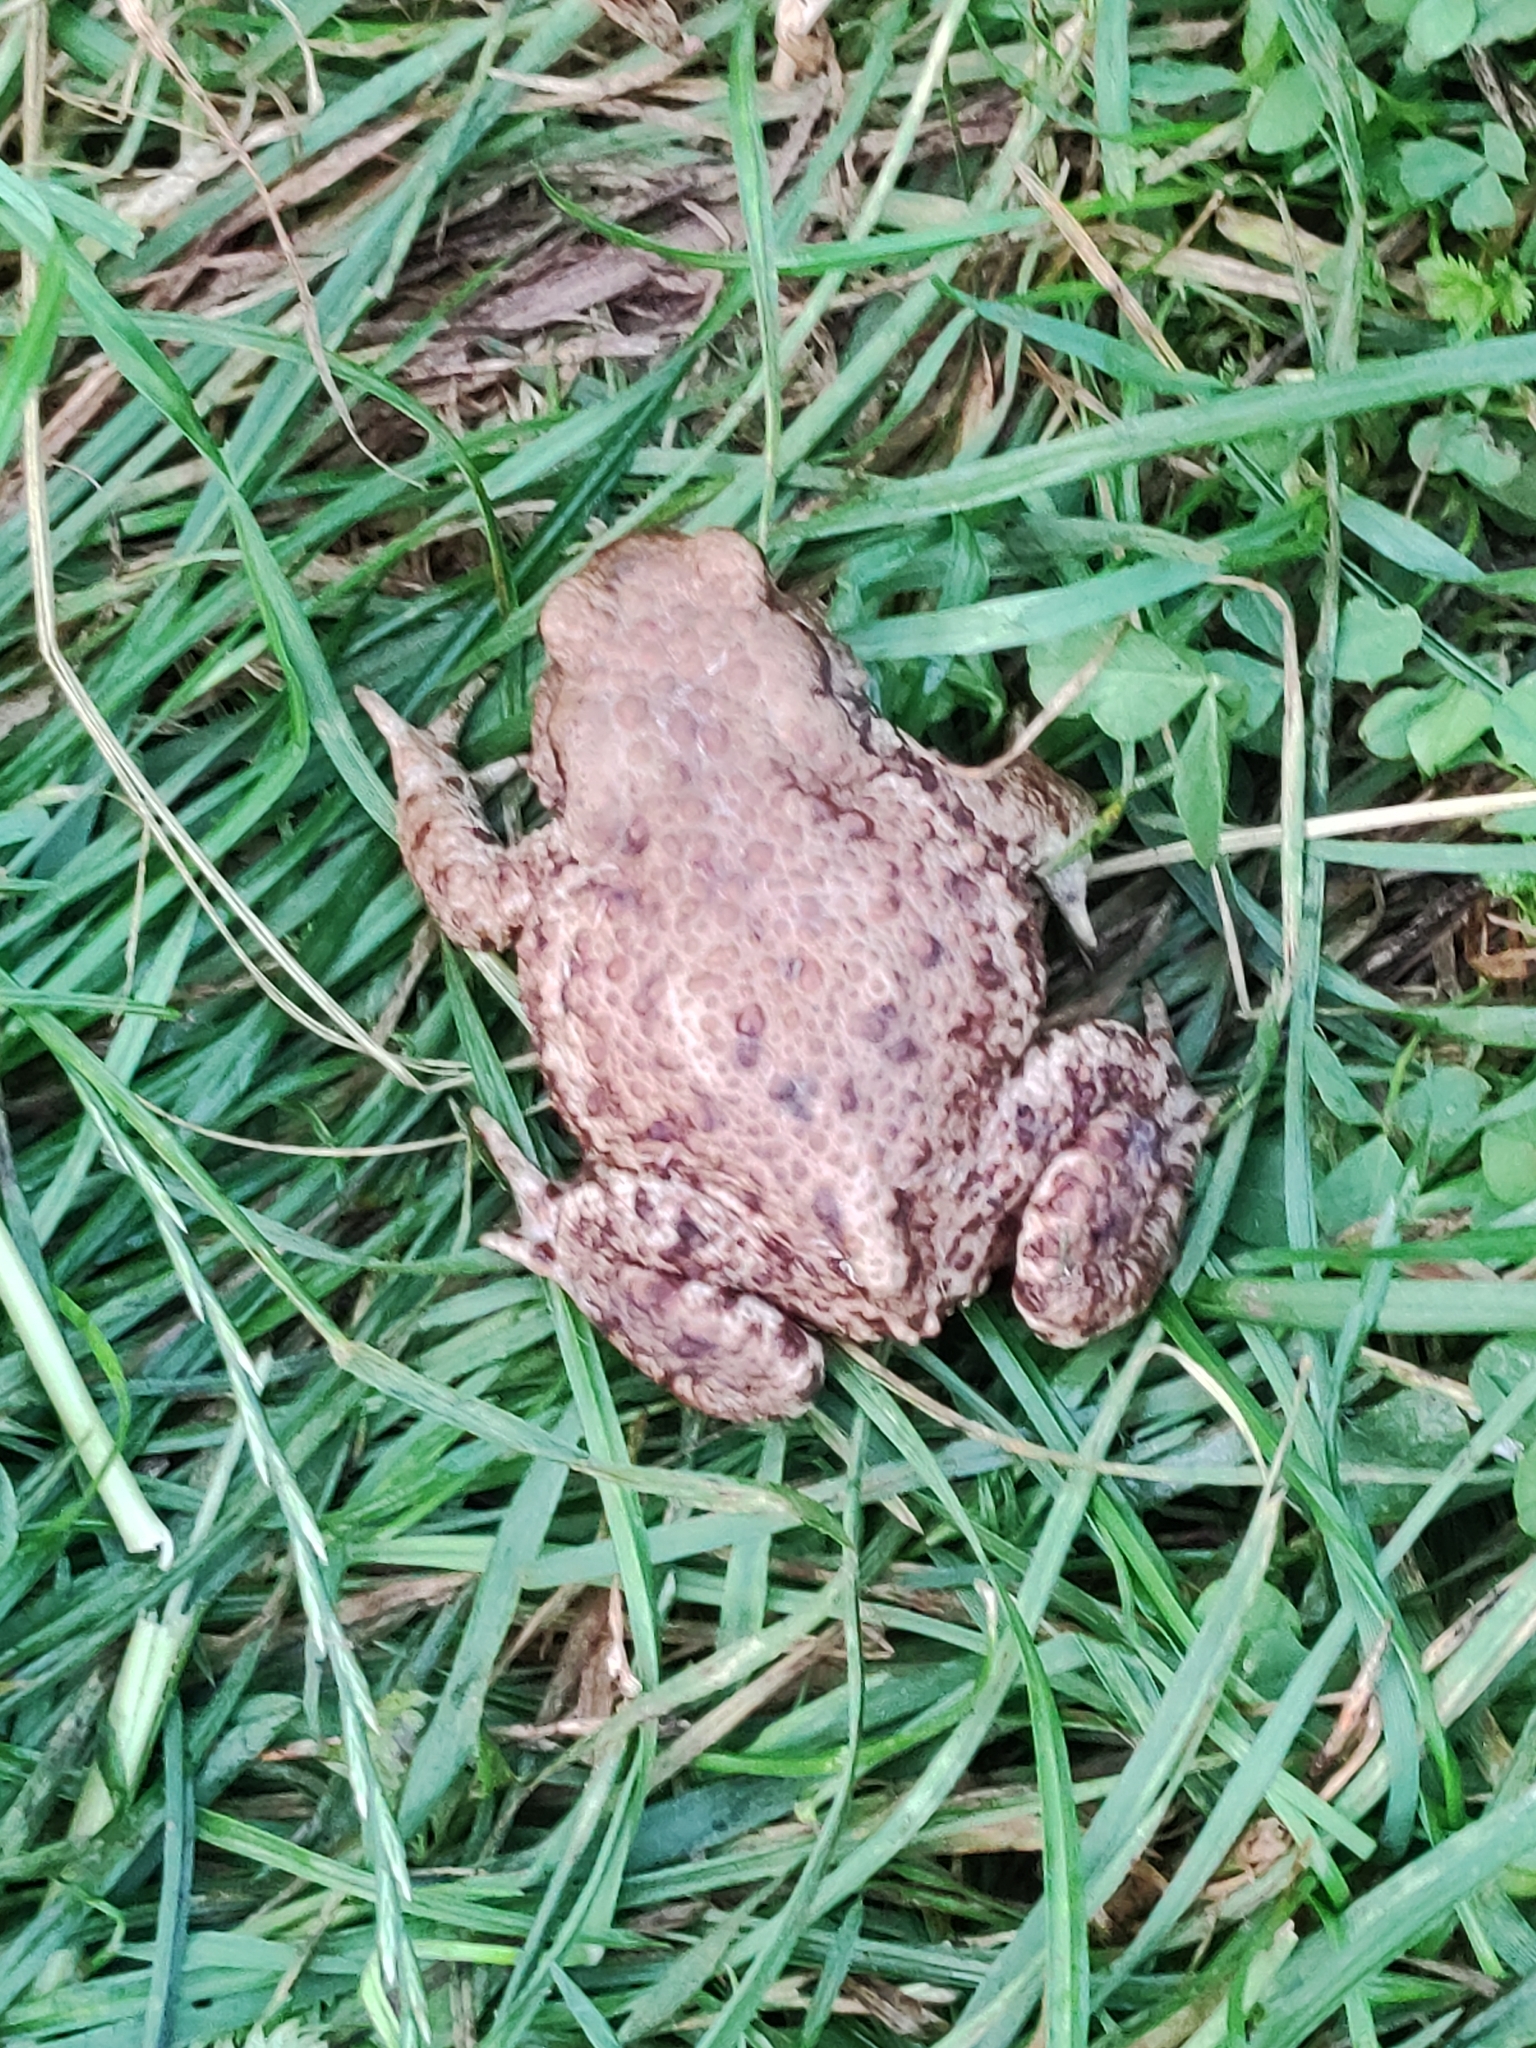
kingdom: Animalia
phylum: Chordata
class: Amphibia
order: Anura
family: Bufonidae
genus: Bufo
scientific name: Bufo bufo
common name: Common toad
